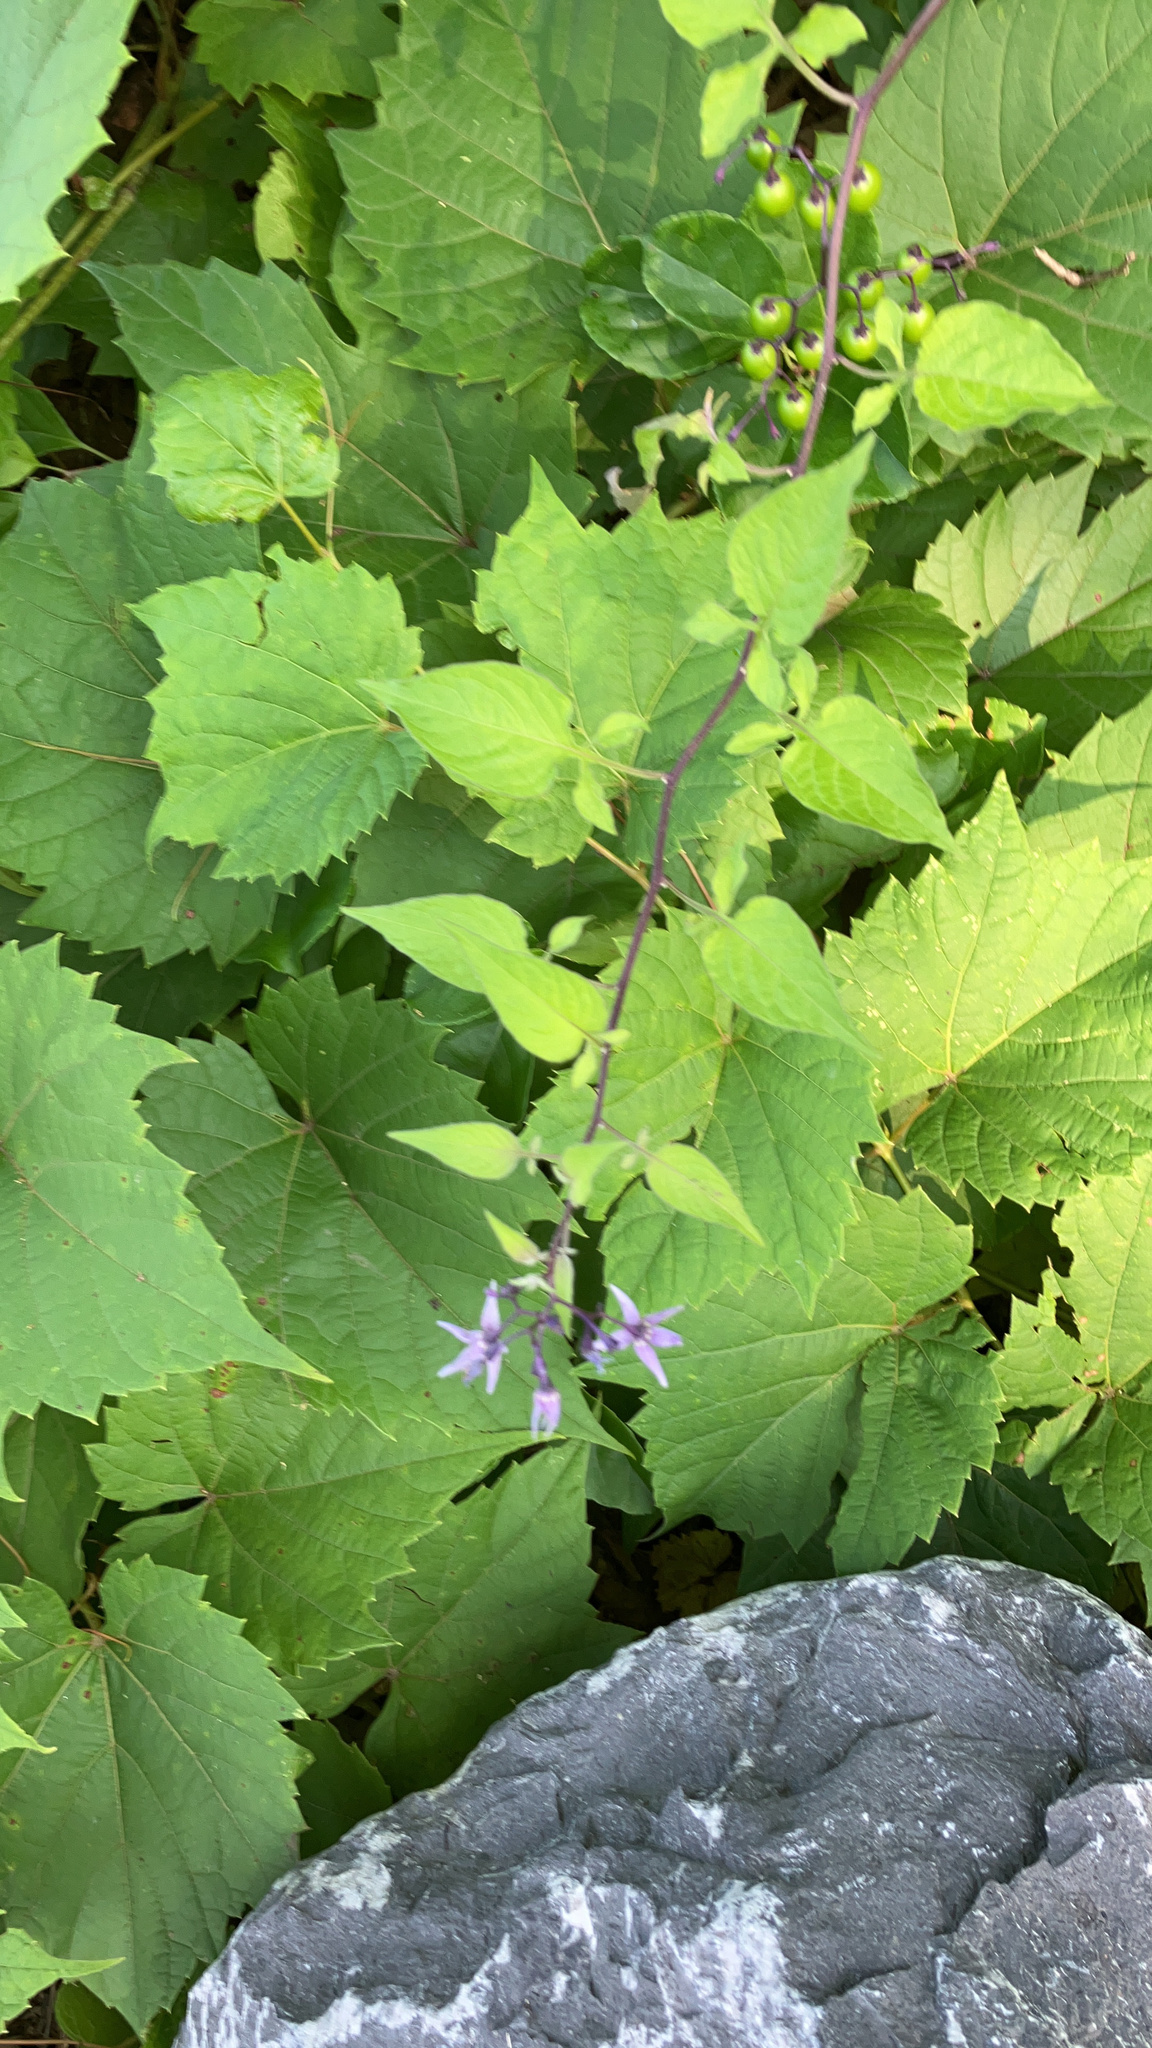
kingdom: Plantae
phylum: Tracheophyta
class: Magnoliopsida
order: Solanales
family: Solanaceae
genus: Solanum
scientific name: Solanum dulcamara
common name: Climbing nightshade
